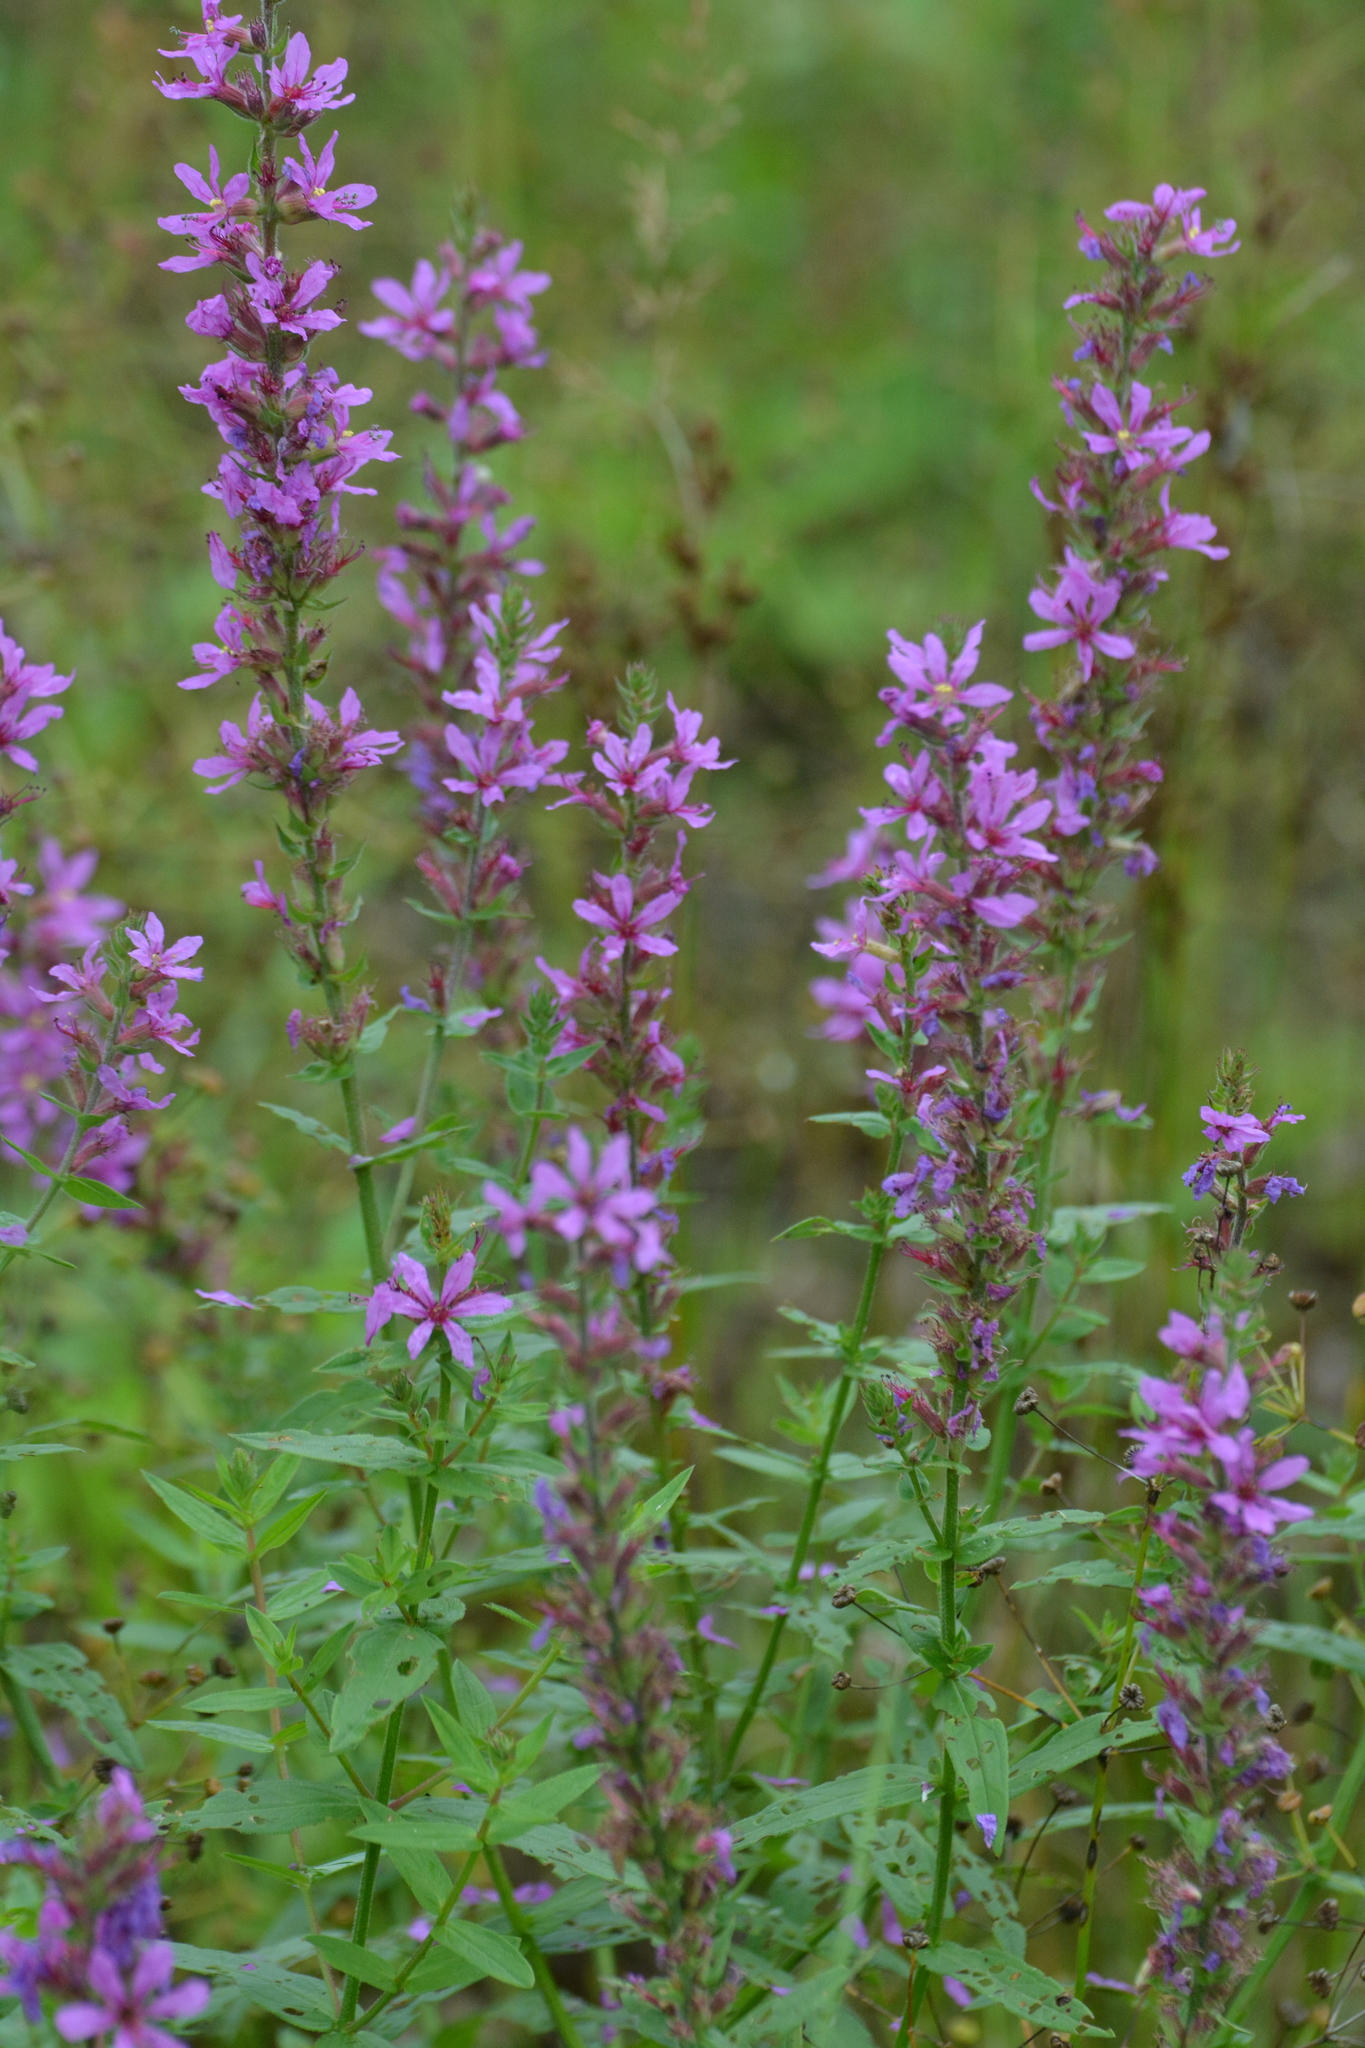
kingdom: Plantae
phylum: Tracheophyta
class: Magnoliopsida
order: Myrtales
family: Lythraceae
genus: Lythrum
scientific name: Lythrum salicaria
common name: Purple loosestrife
